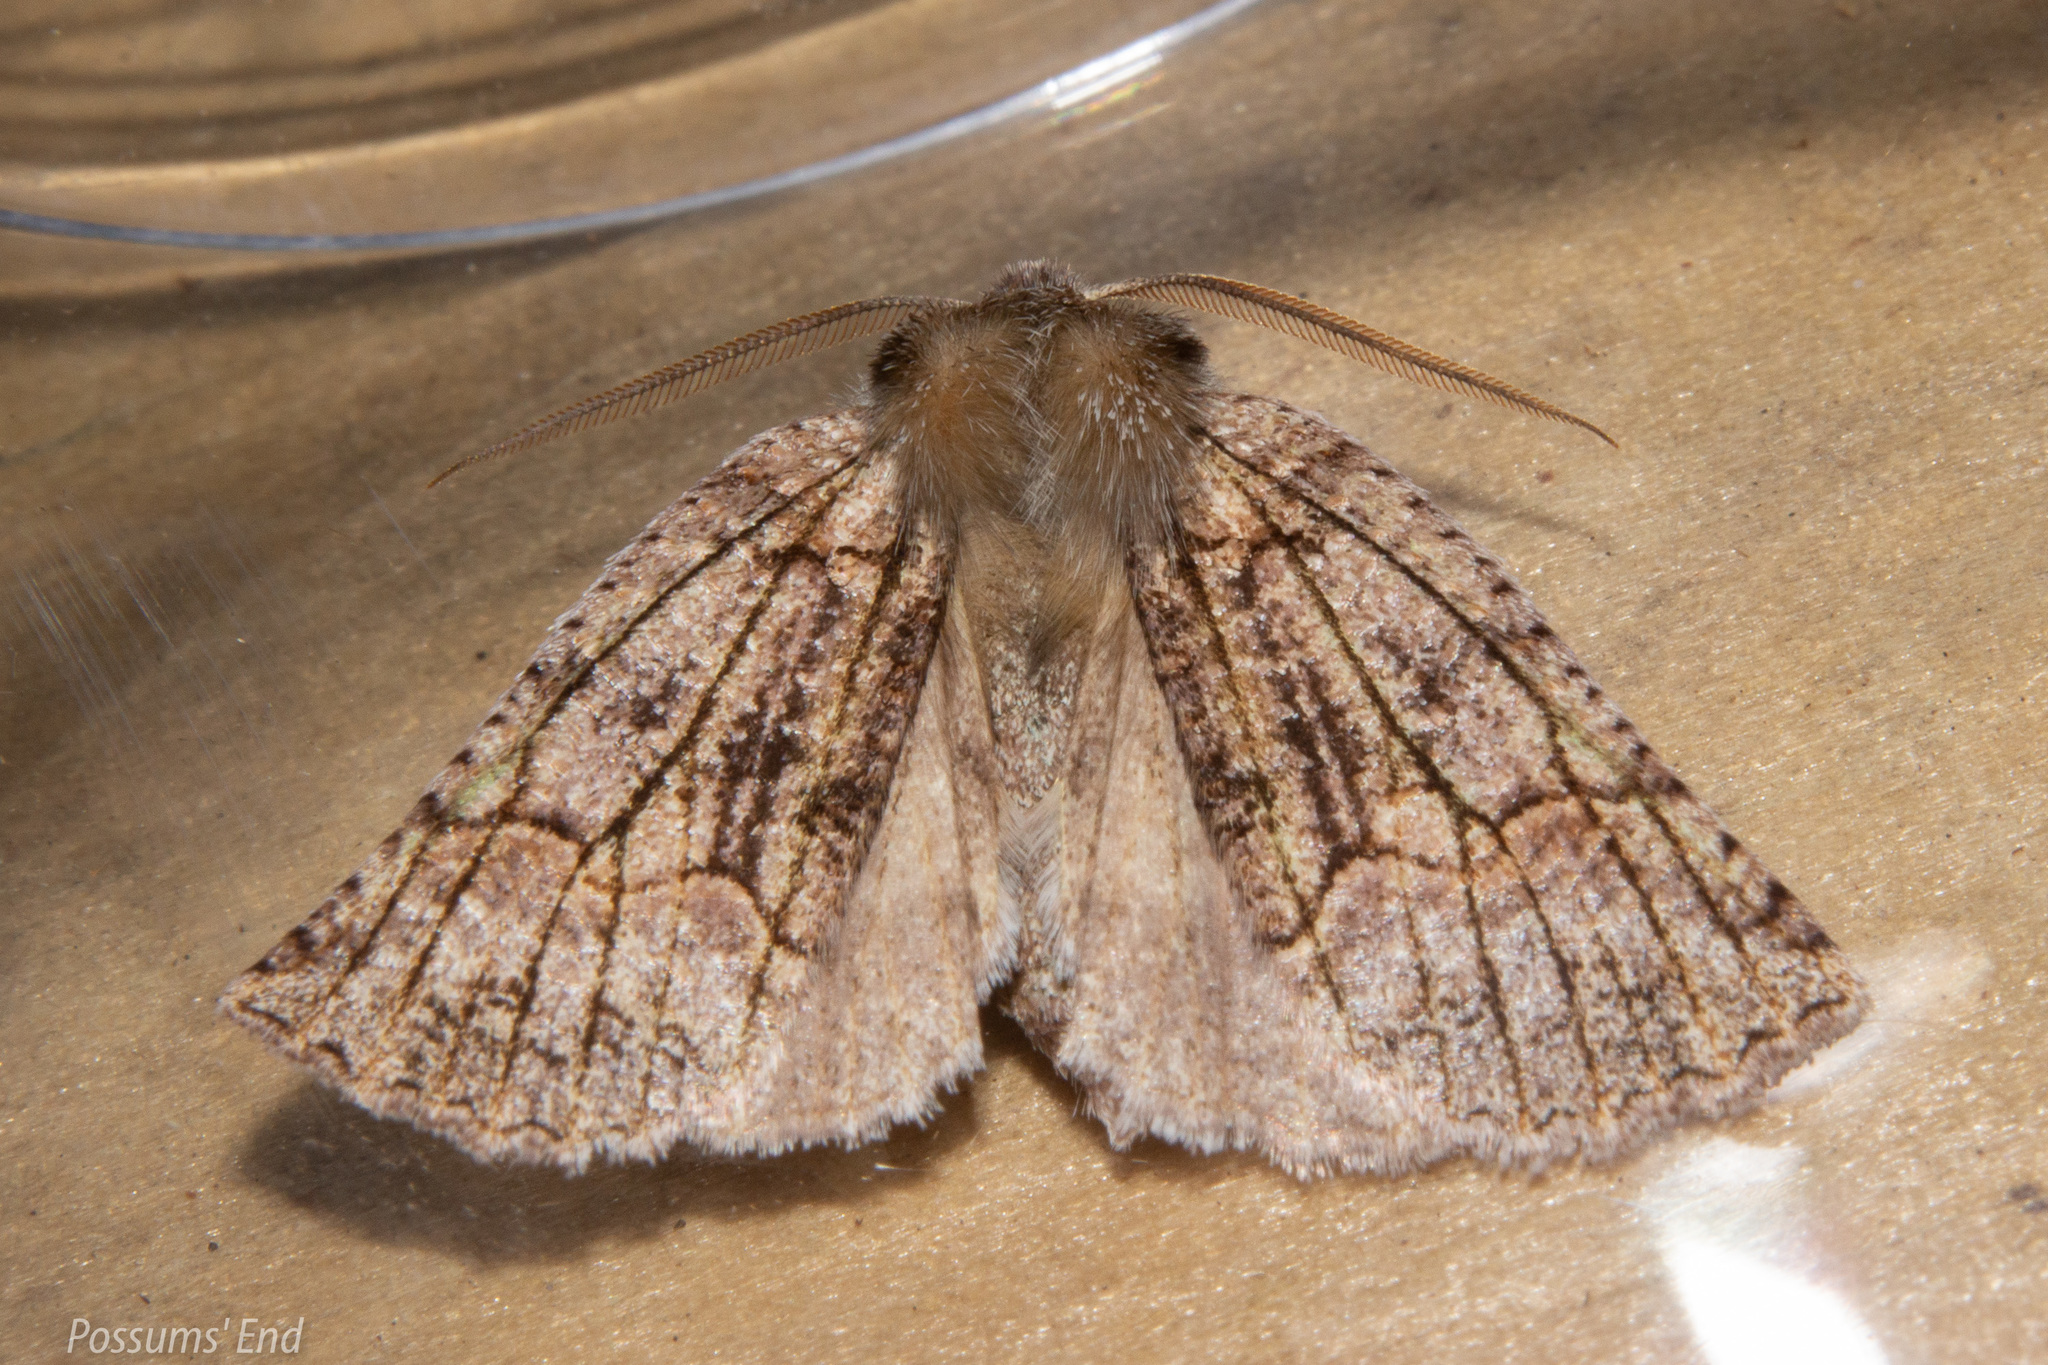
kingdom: Animalia
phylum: Arthropoda
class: Insecta
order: Lepidoptera
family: Geometridae
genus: Declana
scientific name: Declana floccosa
